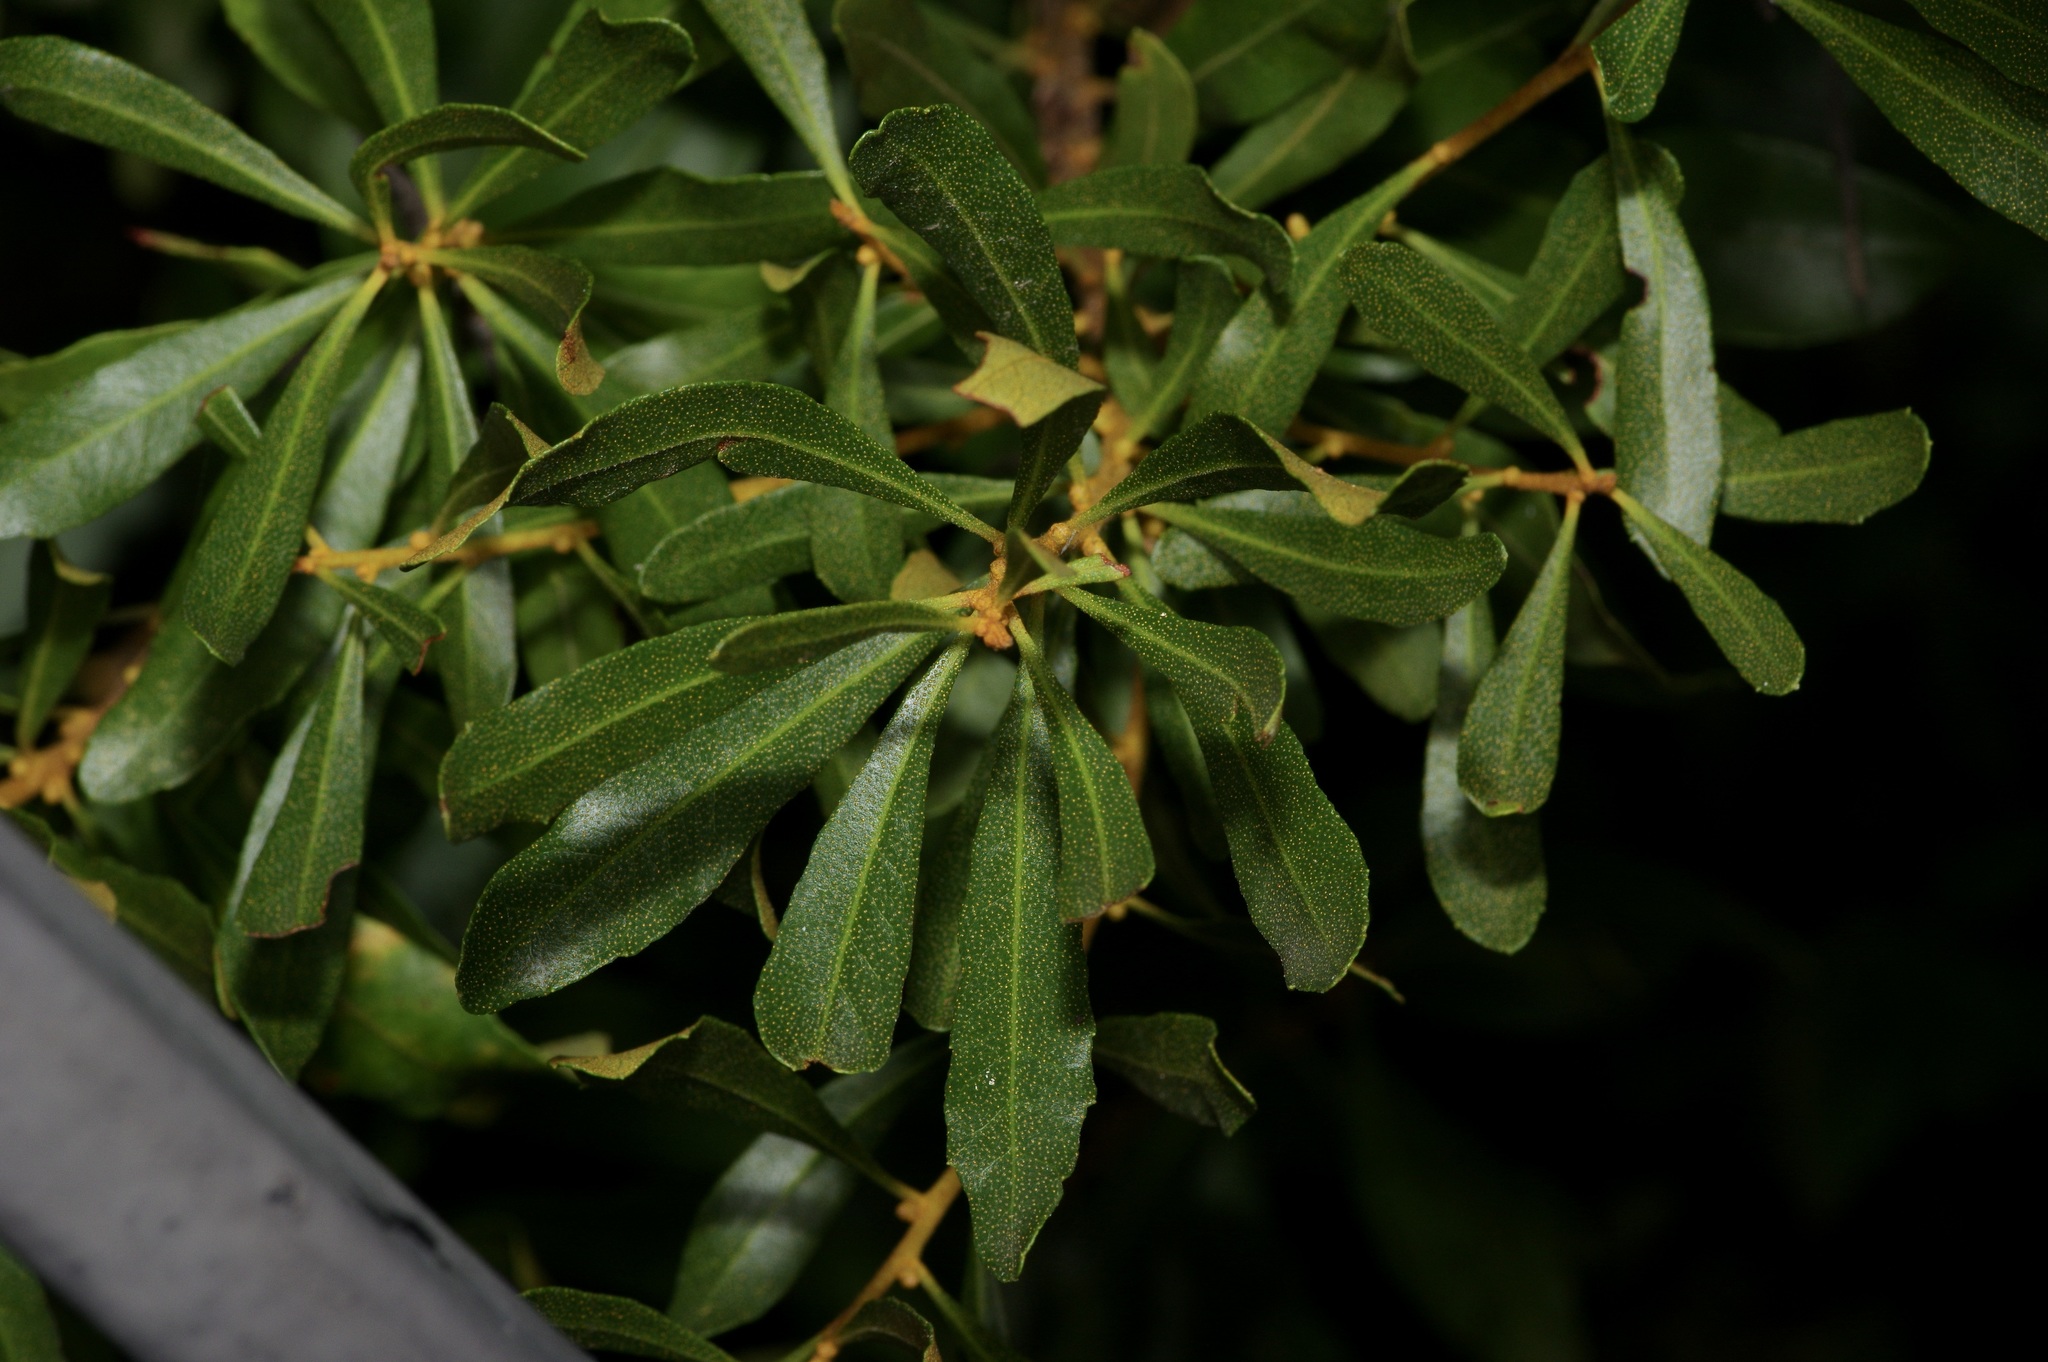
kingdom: Plantae
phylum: Tracheophyta
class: Magnoliopsida
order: Fagales
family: Myricaceae
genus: Morella
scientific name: Morella cerifera
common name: Wax myrtle
